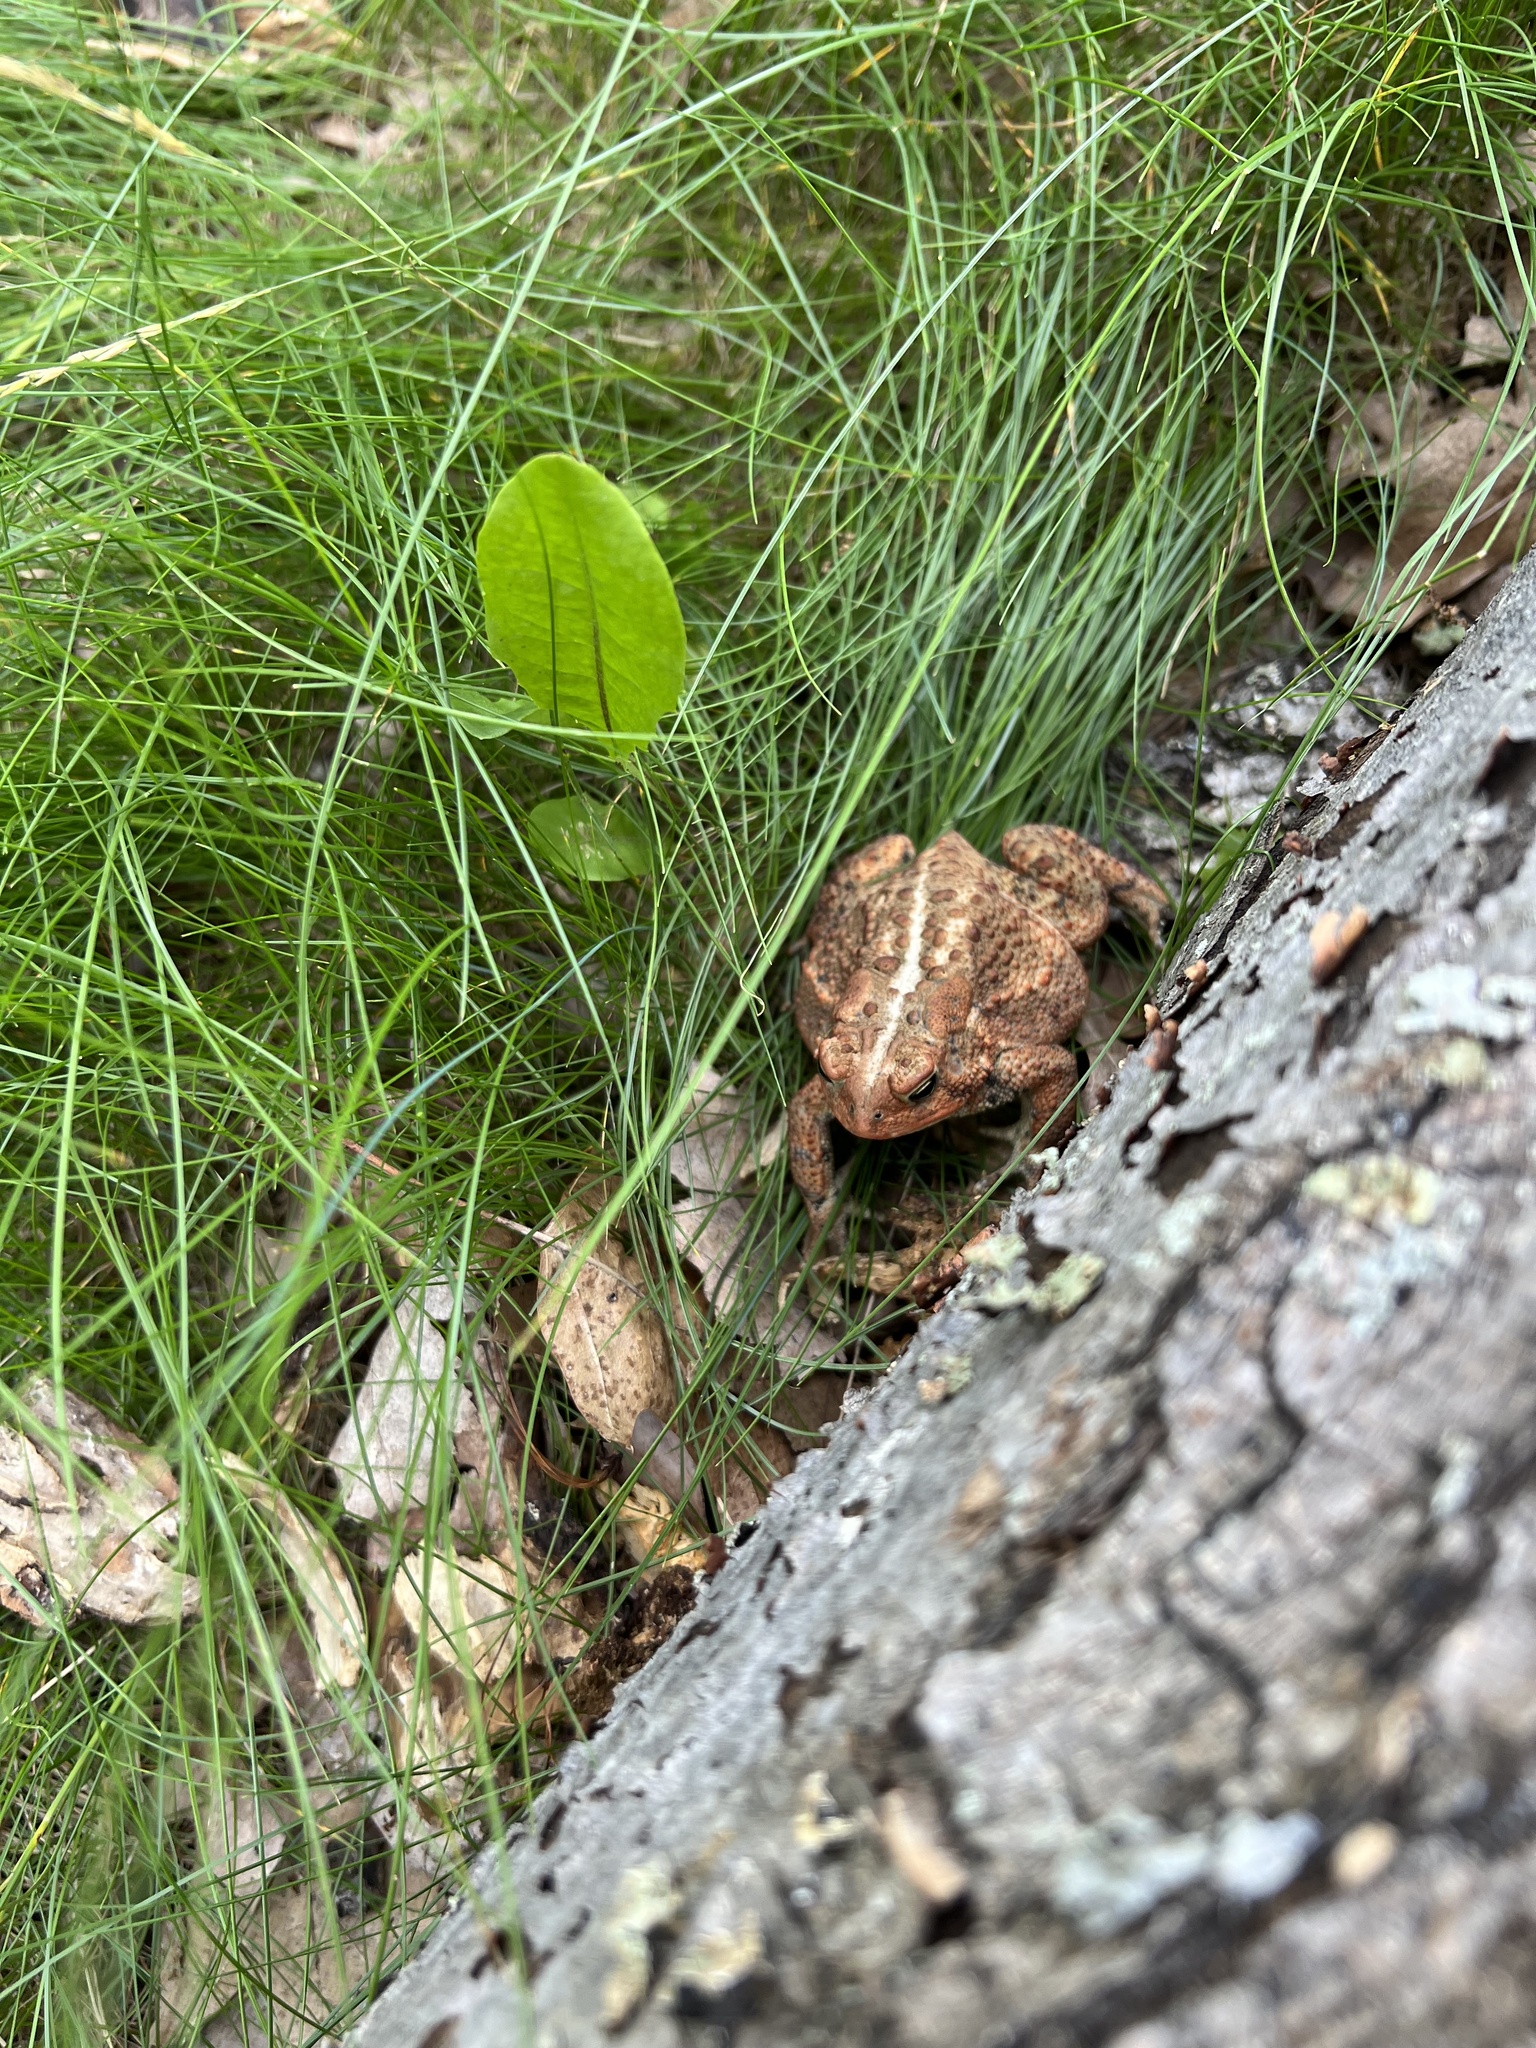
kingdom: Animalia
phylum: Chordata
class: Amphibia
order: Anura
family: Bufonidae
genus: Anaxyrus
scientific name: Anaxyrus americanus
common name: American toad
